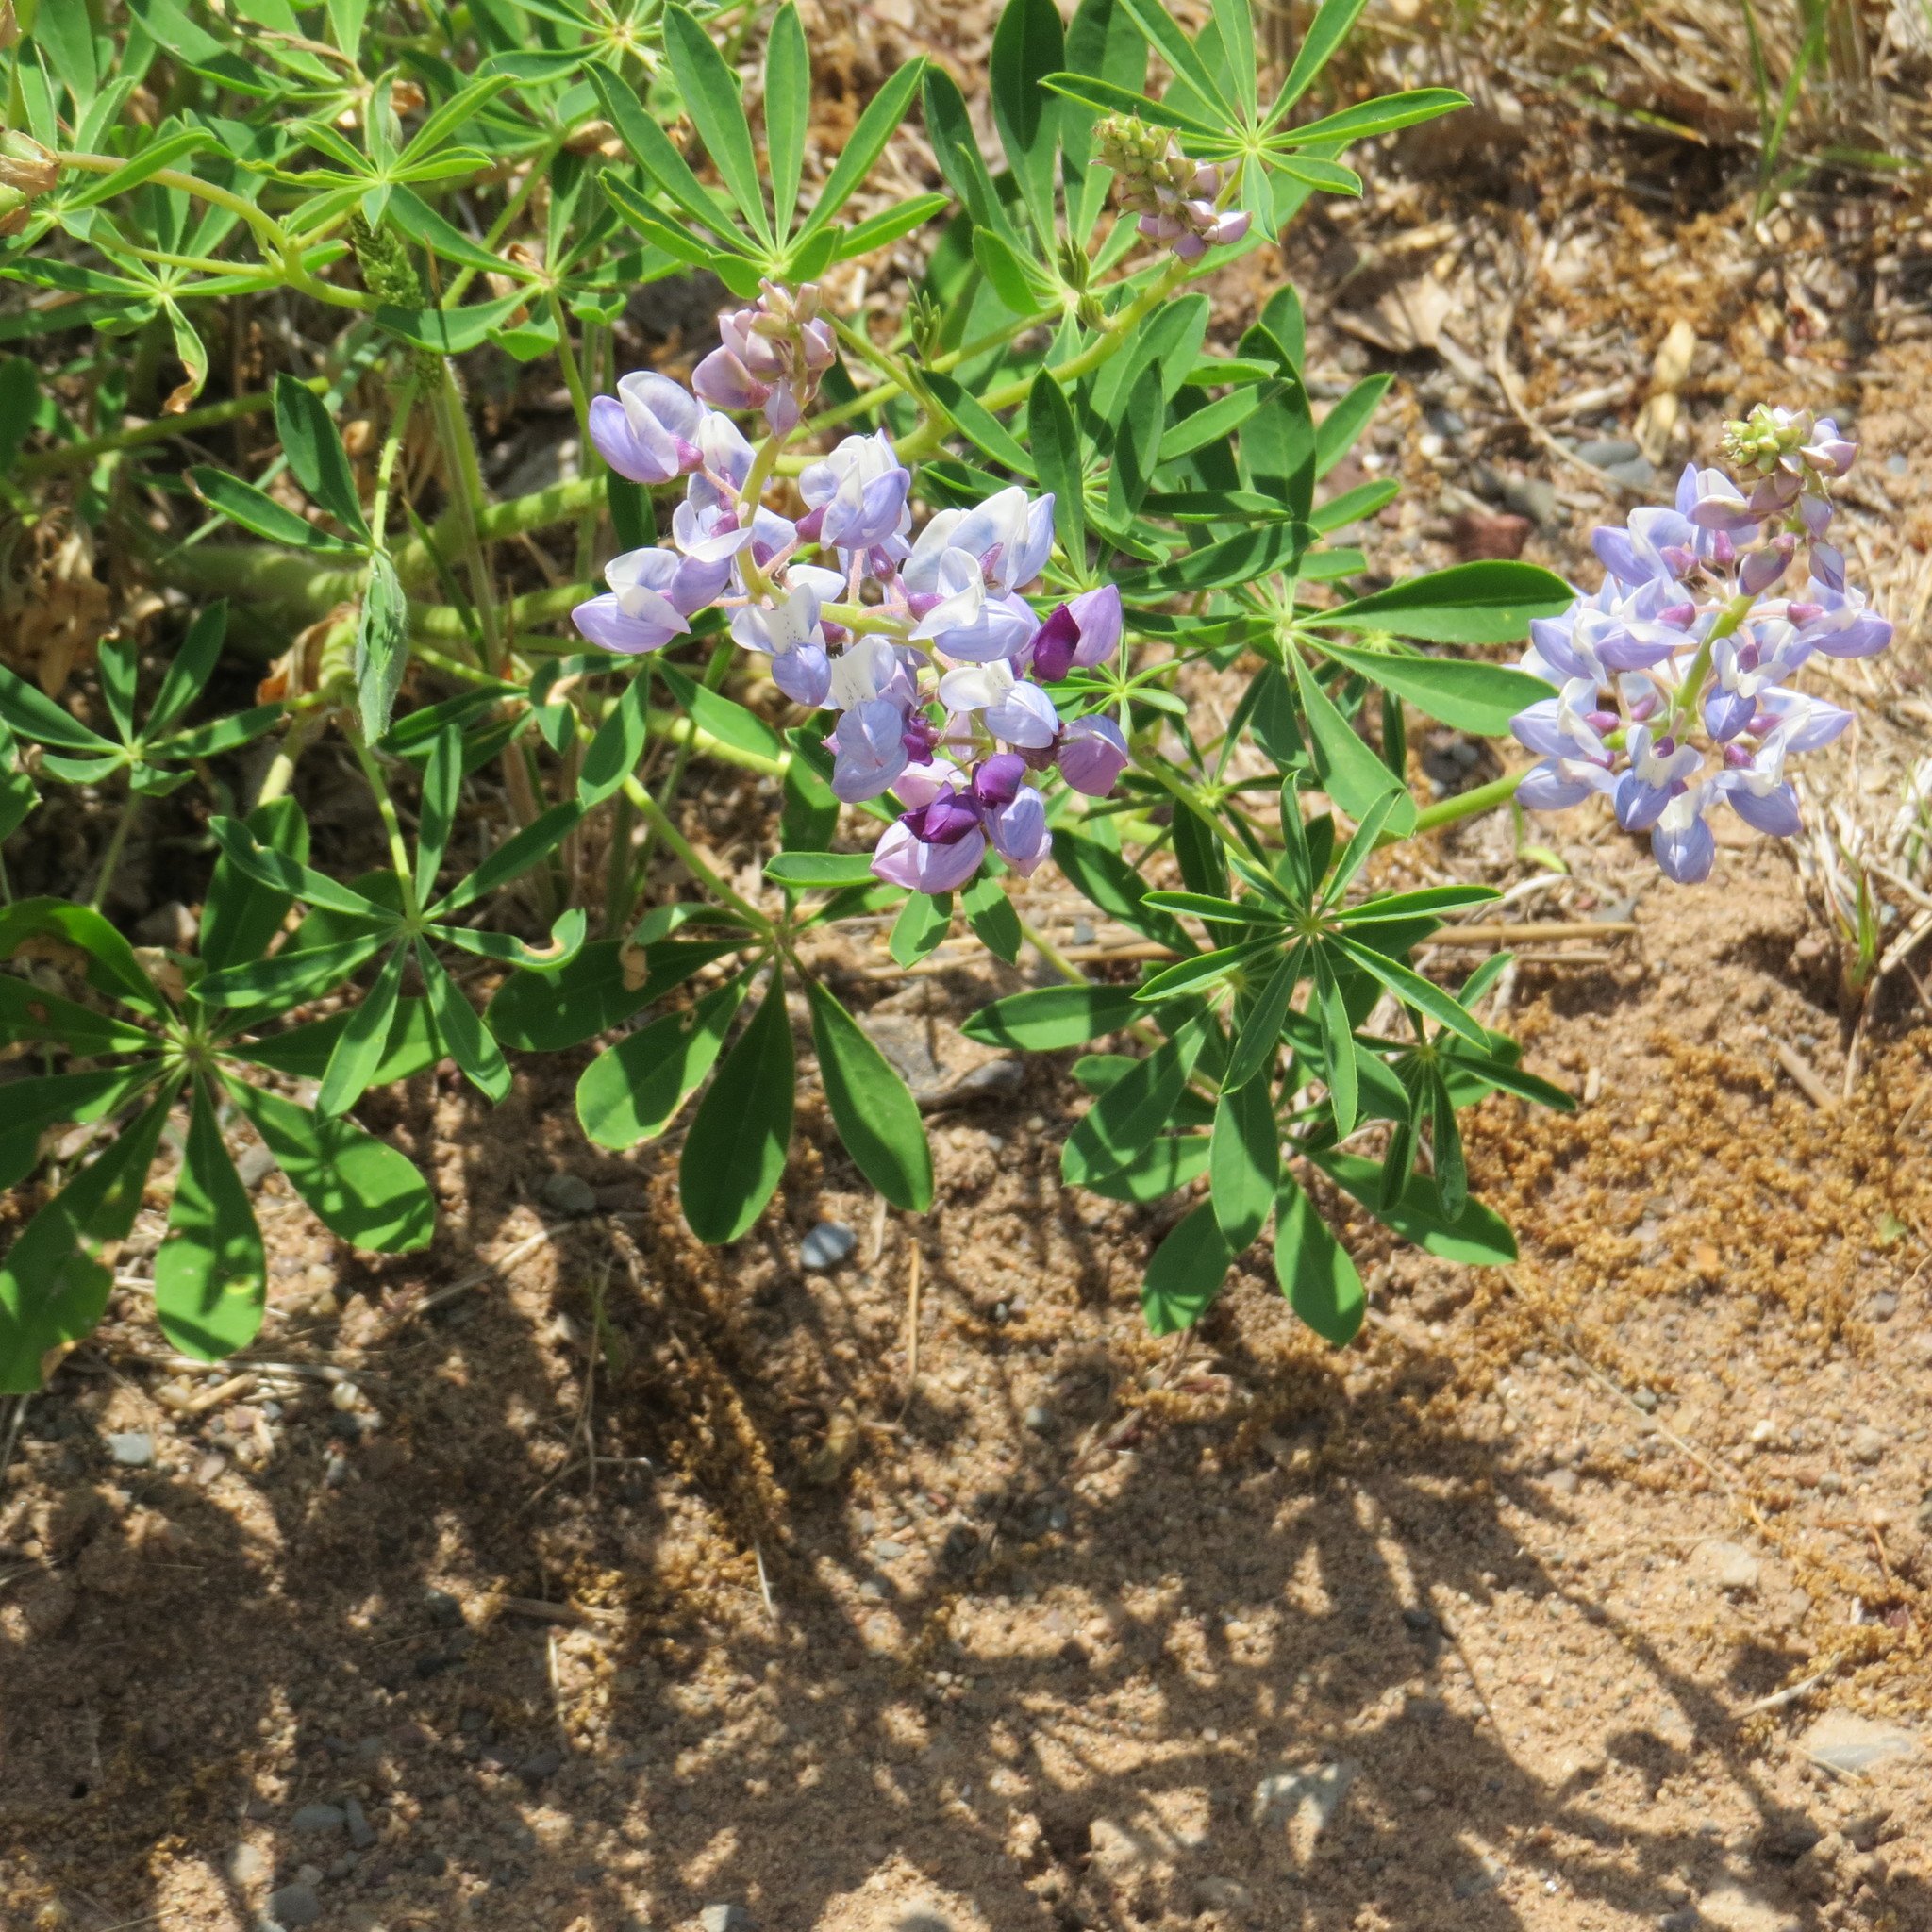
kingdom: Plantae
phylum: Tracheophyta
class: Magnoliopsida
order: Fabales
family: Fabaceae
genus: Lupinus
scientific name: Lupinus perennis
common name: Sundial lupine
